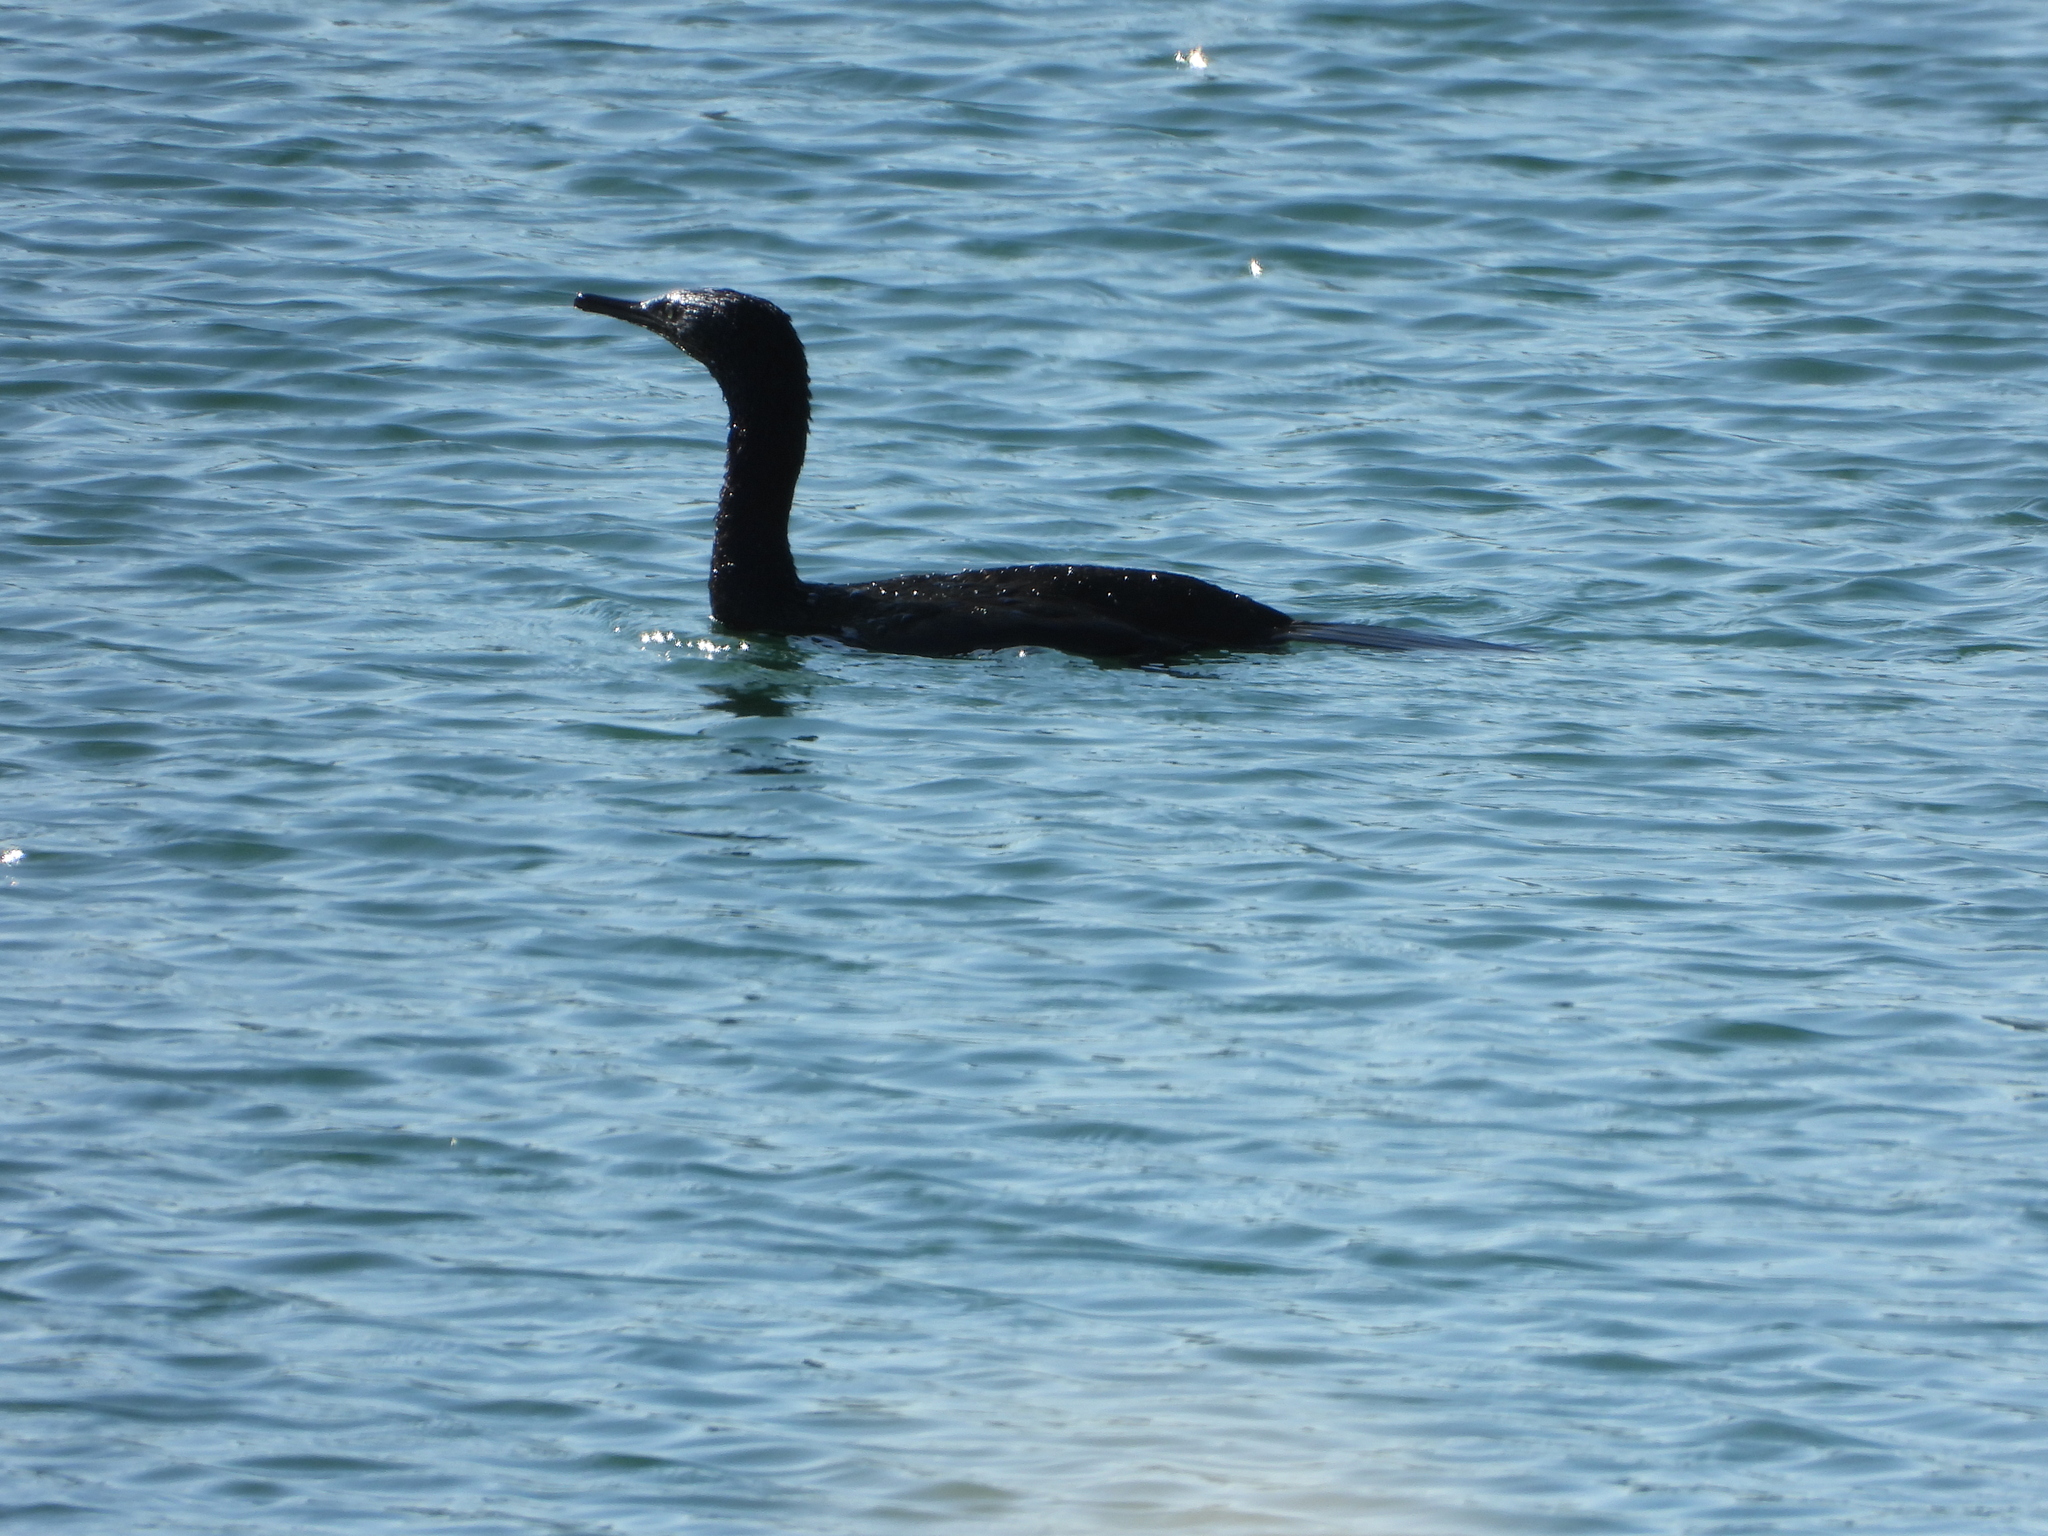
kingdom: Animalia
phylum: Chordata
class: Aves
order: Suliformes
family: Phalacrocoracidae
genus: Phalacrocorax
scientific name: Phalacrocorax pelagicus
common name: Pelagic cormorant
